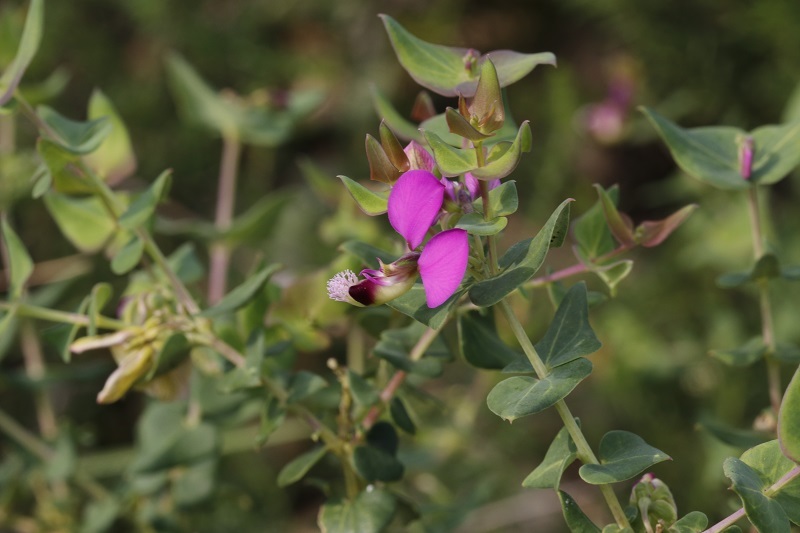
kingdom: Plantae
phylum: Tracheophyta
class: Magnoliopsida
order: Fabales
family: Polygalaceae
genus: Polygala
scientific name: Polygala fruticosa
